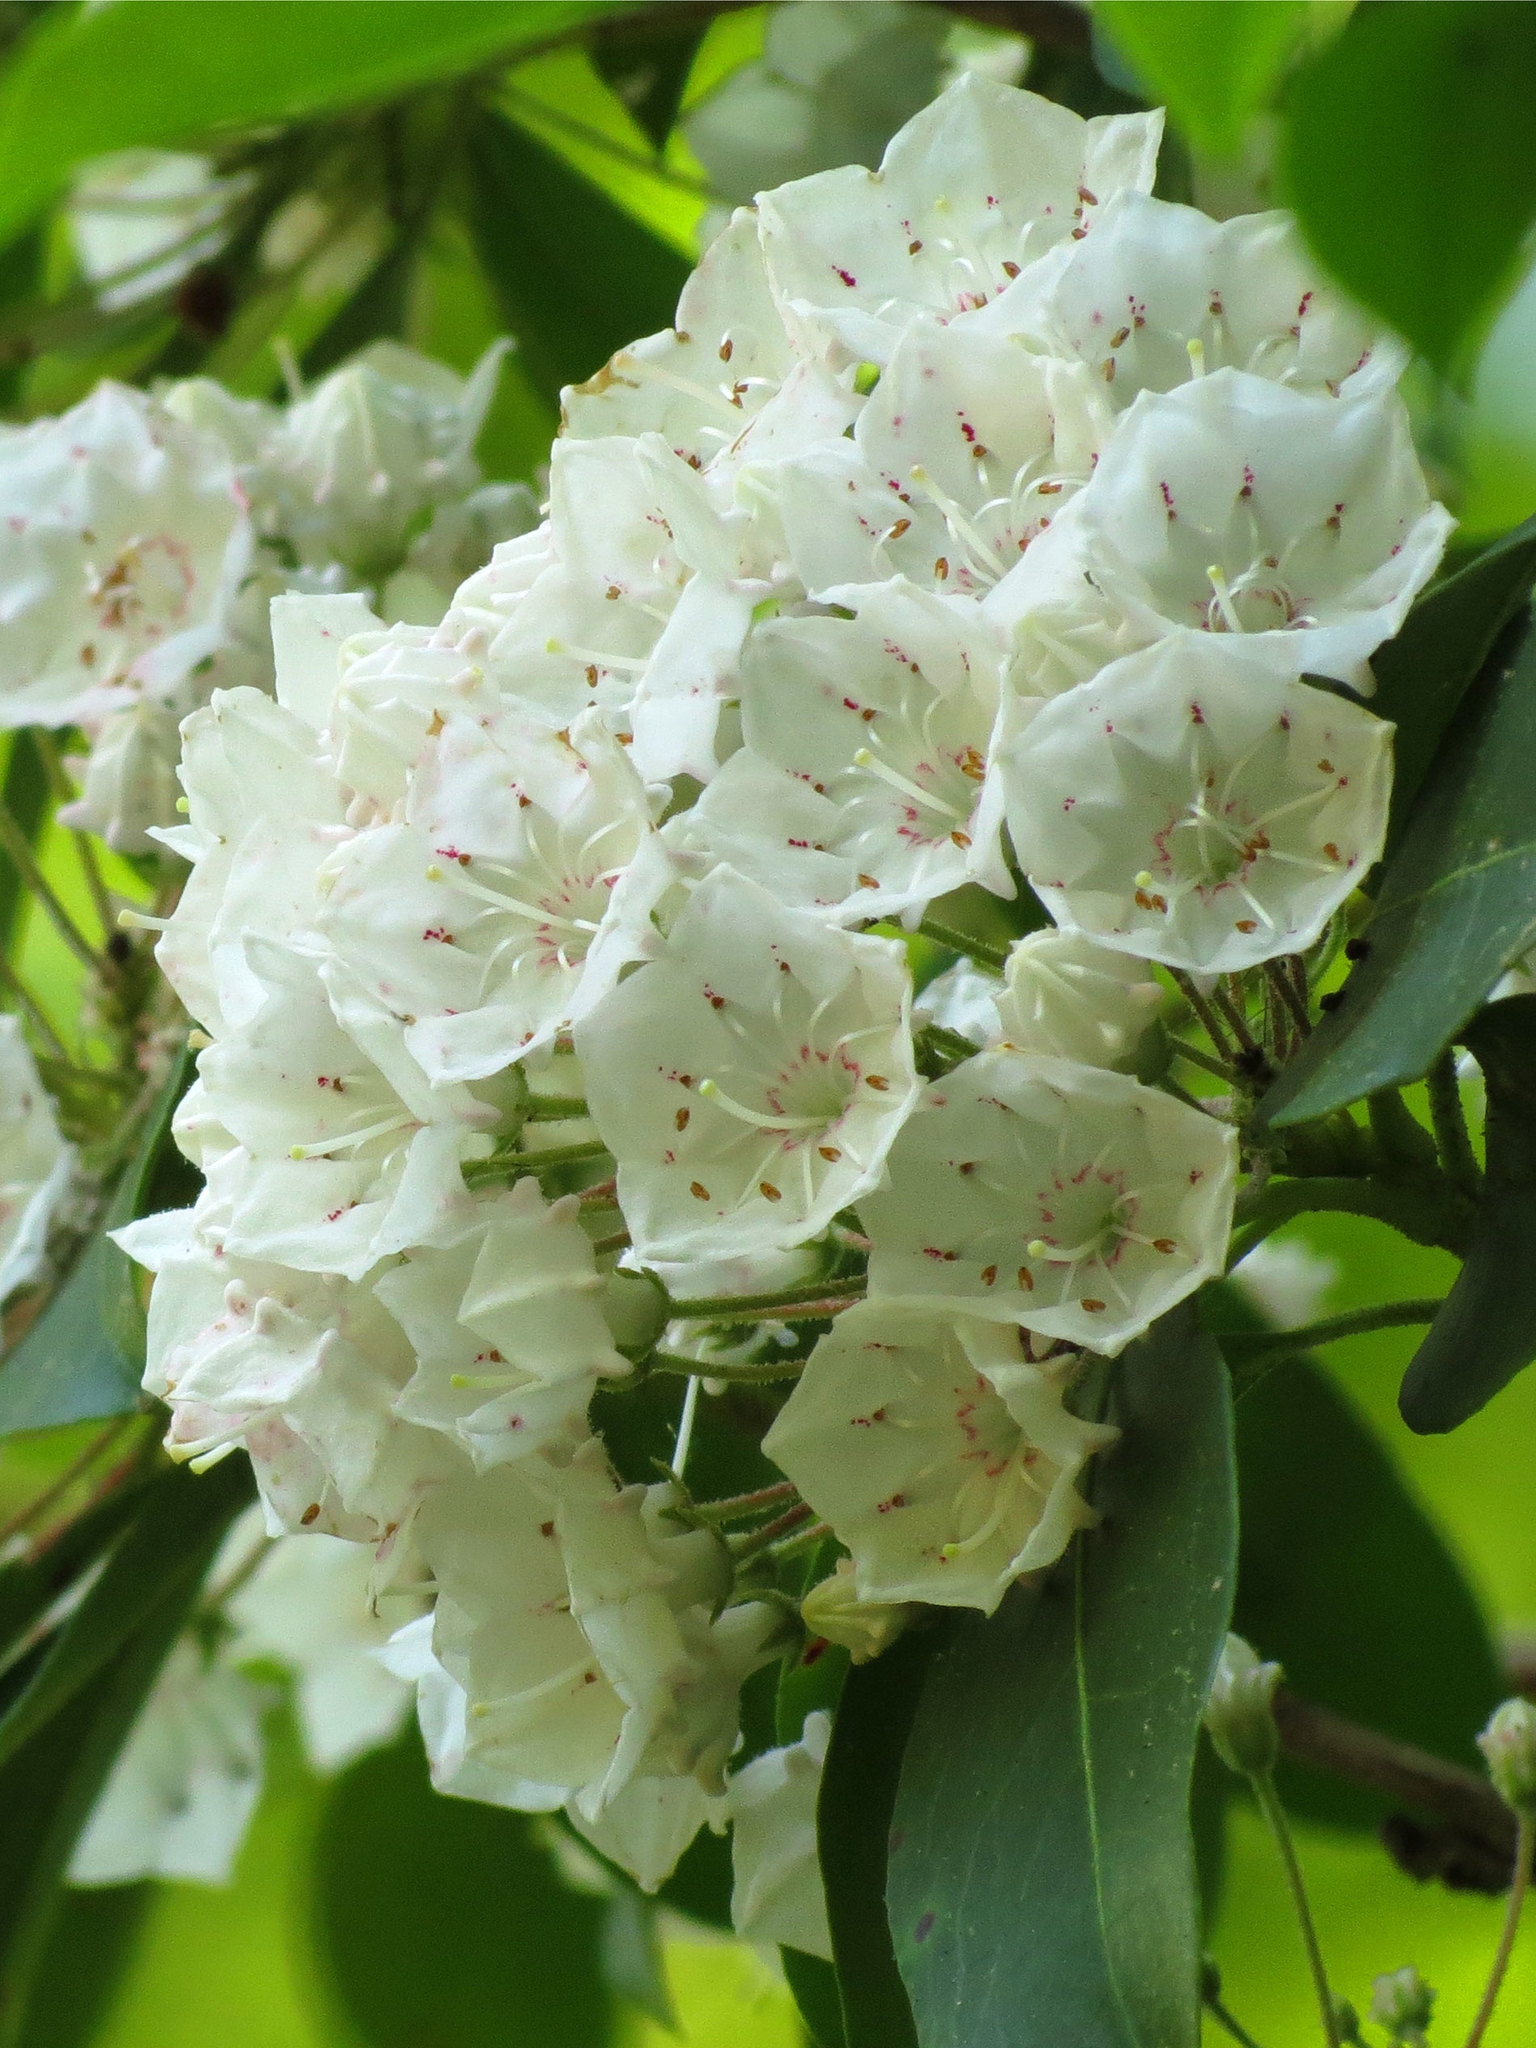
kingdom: Plantae
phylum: Tracheophyta
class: Magnoliopsida
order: Ericales
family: Ericaceae
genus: Kalmia
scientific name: Kalmia latifolia
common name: Mountain-laurel
